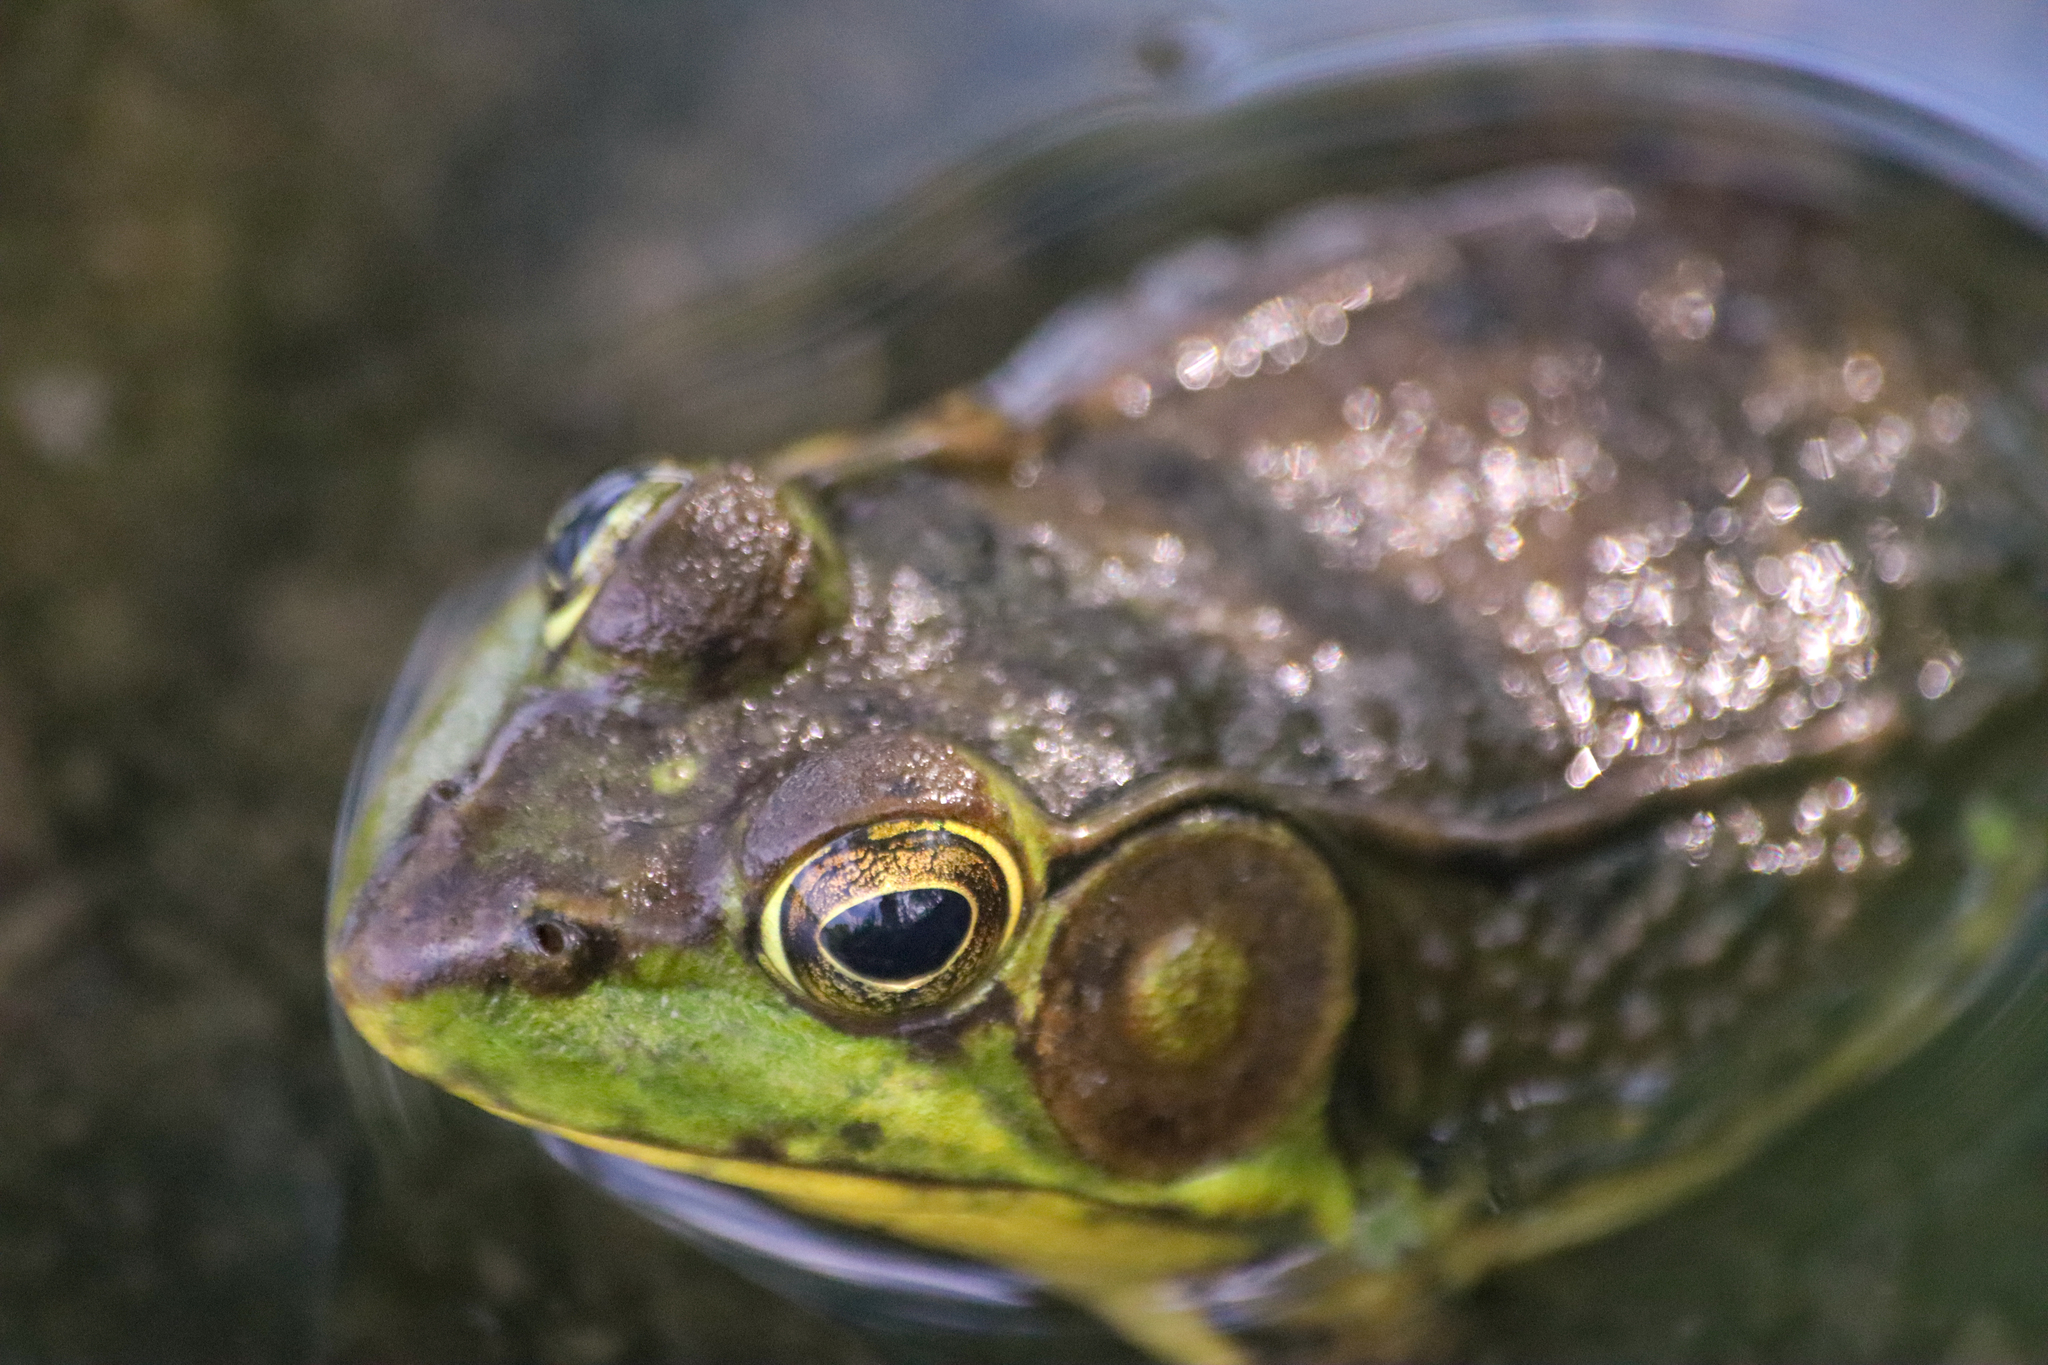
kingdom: Animalia
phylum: Chordata
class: Amphibia
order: Anura
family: Ranidae
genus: Lithobates
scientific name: Lithobates clamitans
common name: Green frog
